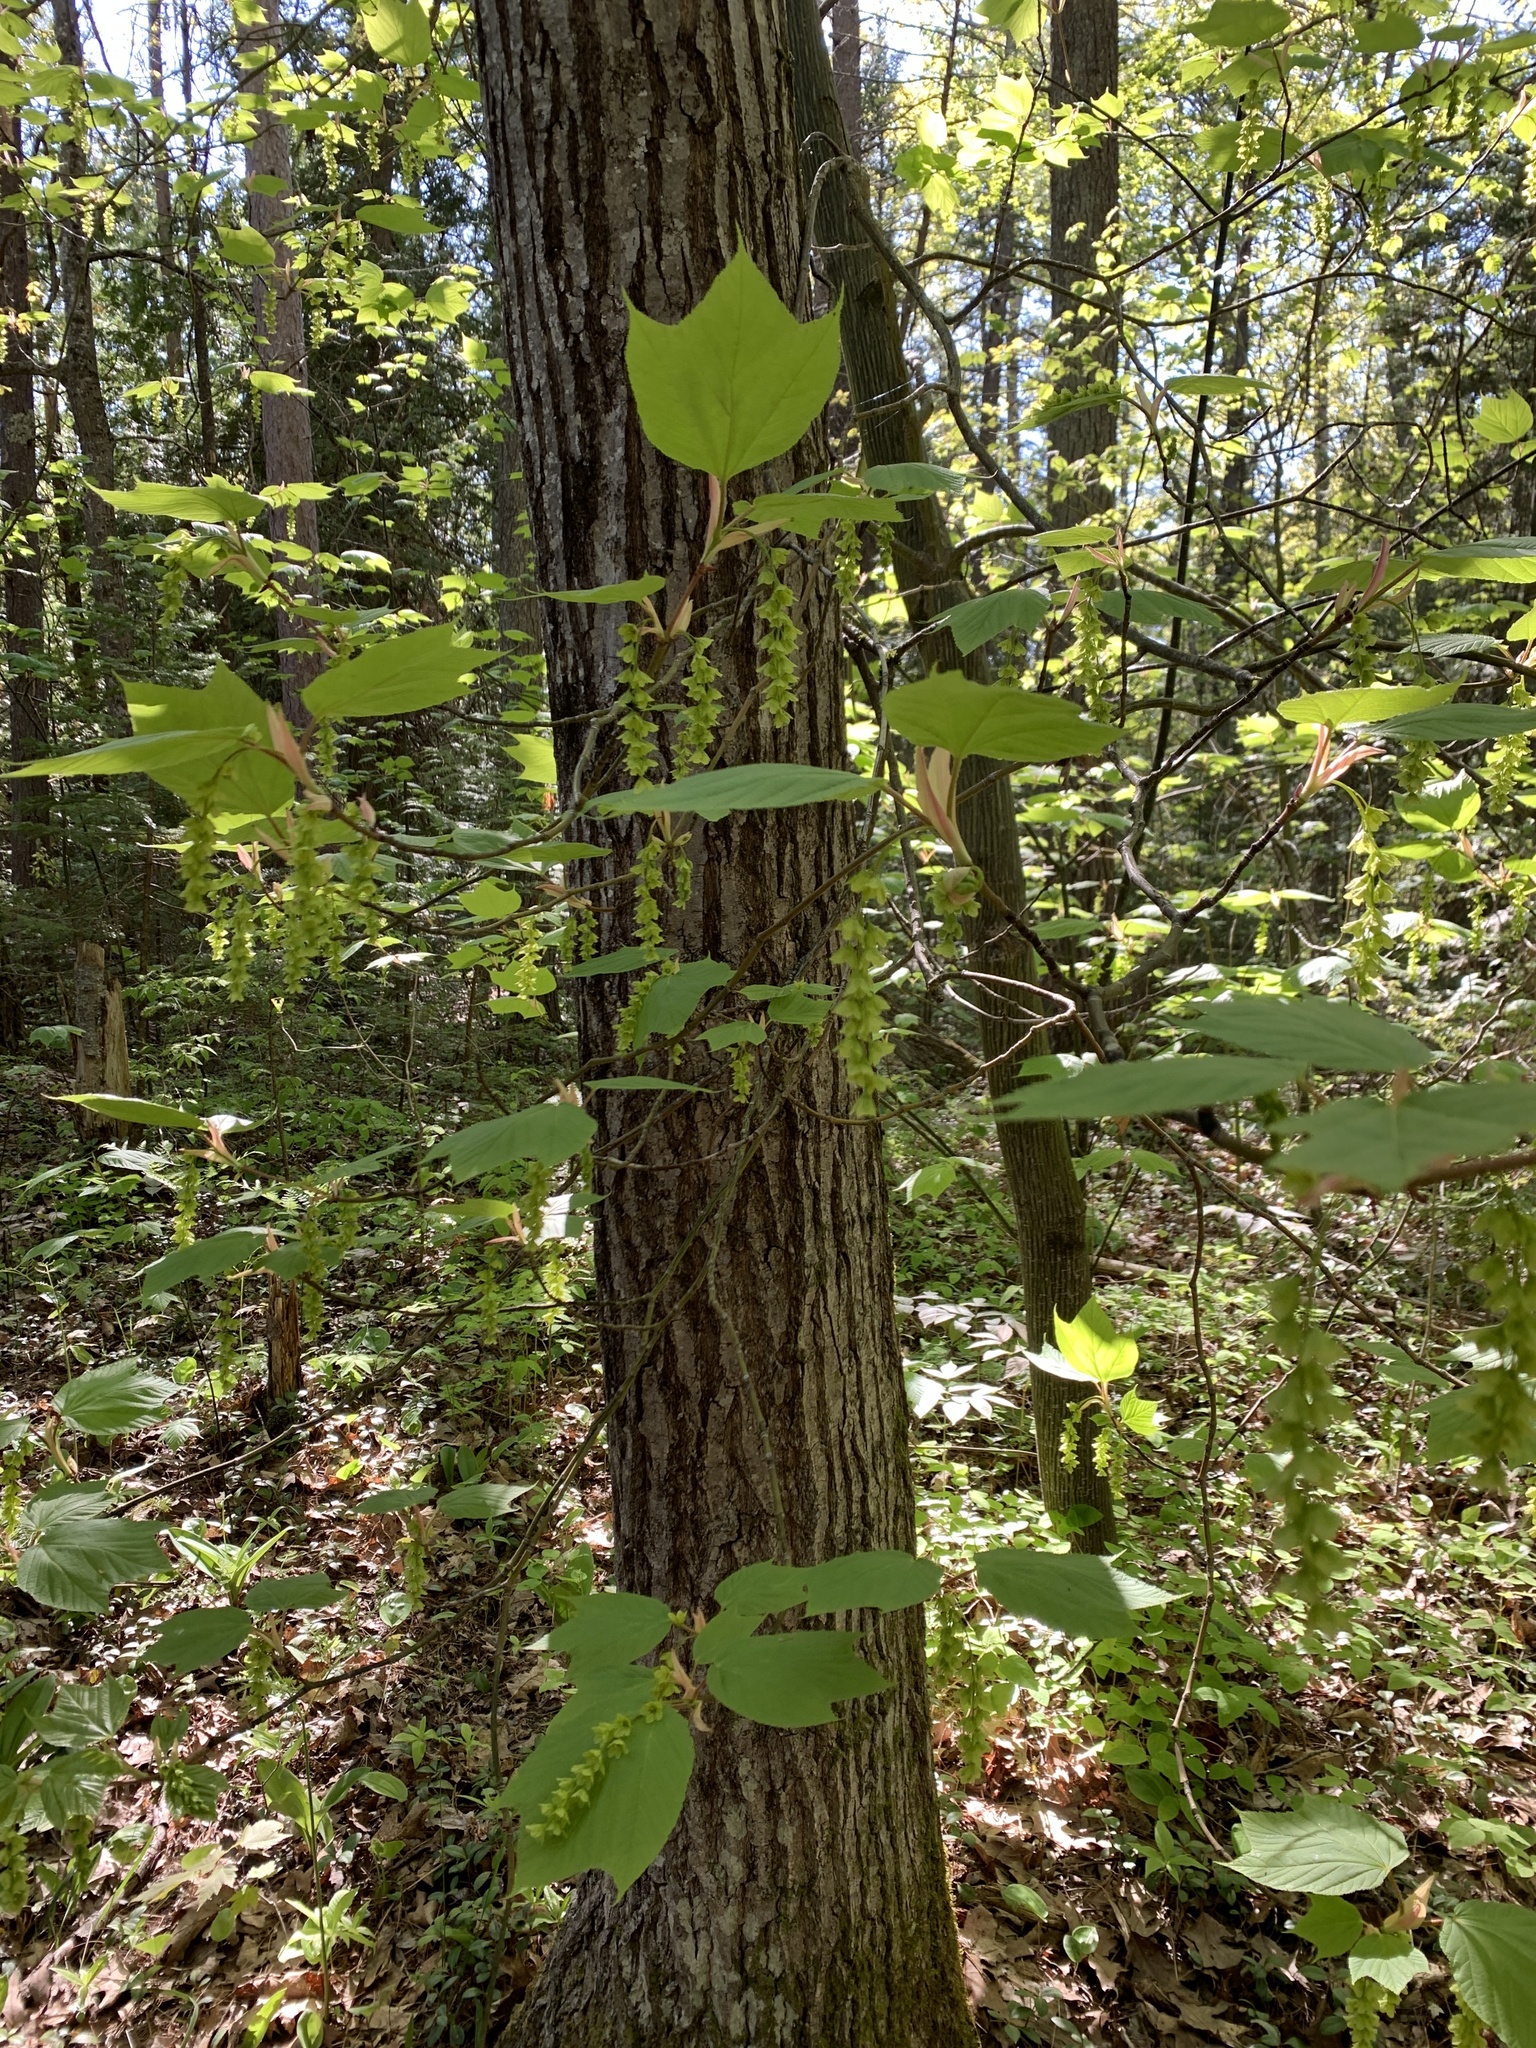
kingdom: Plantae
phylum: Tracheophyta
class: Magnoliopsida
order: Sapindales
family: Sapindaceae
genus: Acer
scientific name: Acer pensylvanicum
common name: Moosewood
